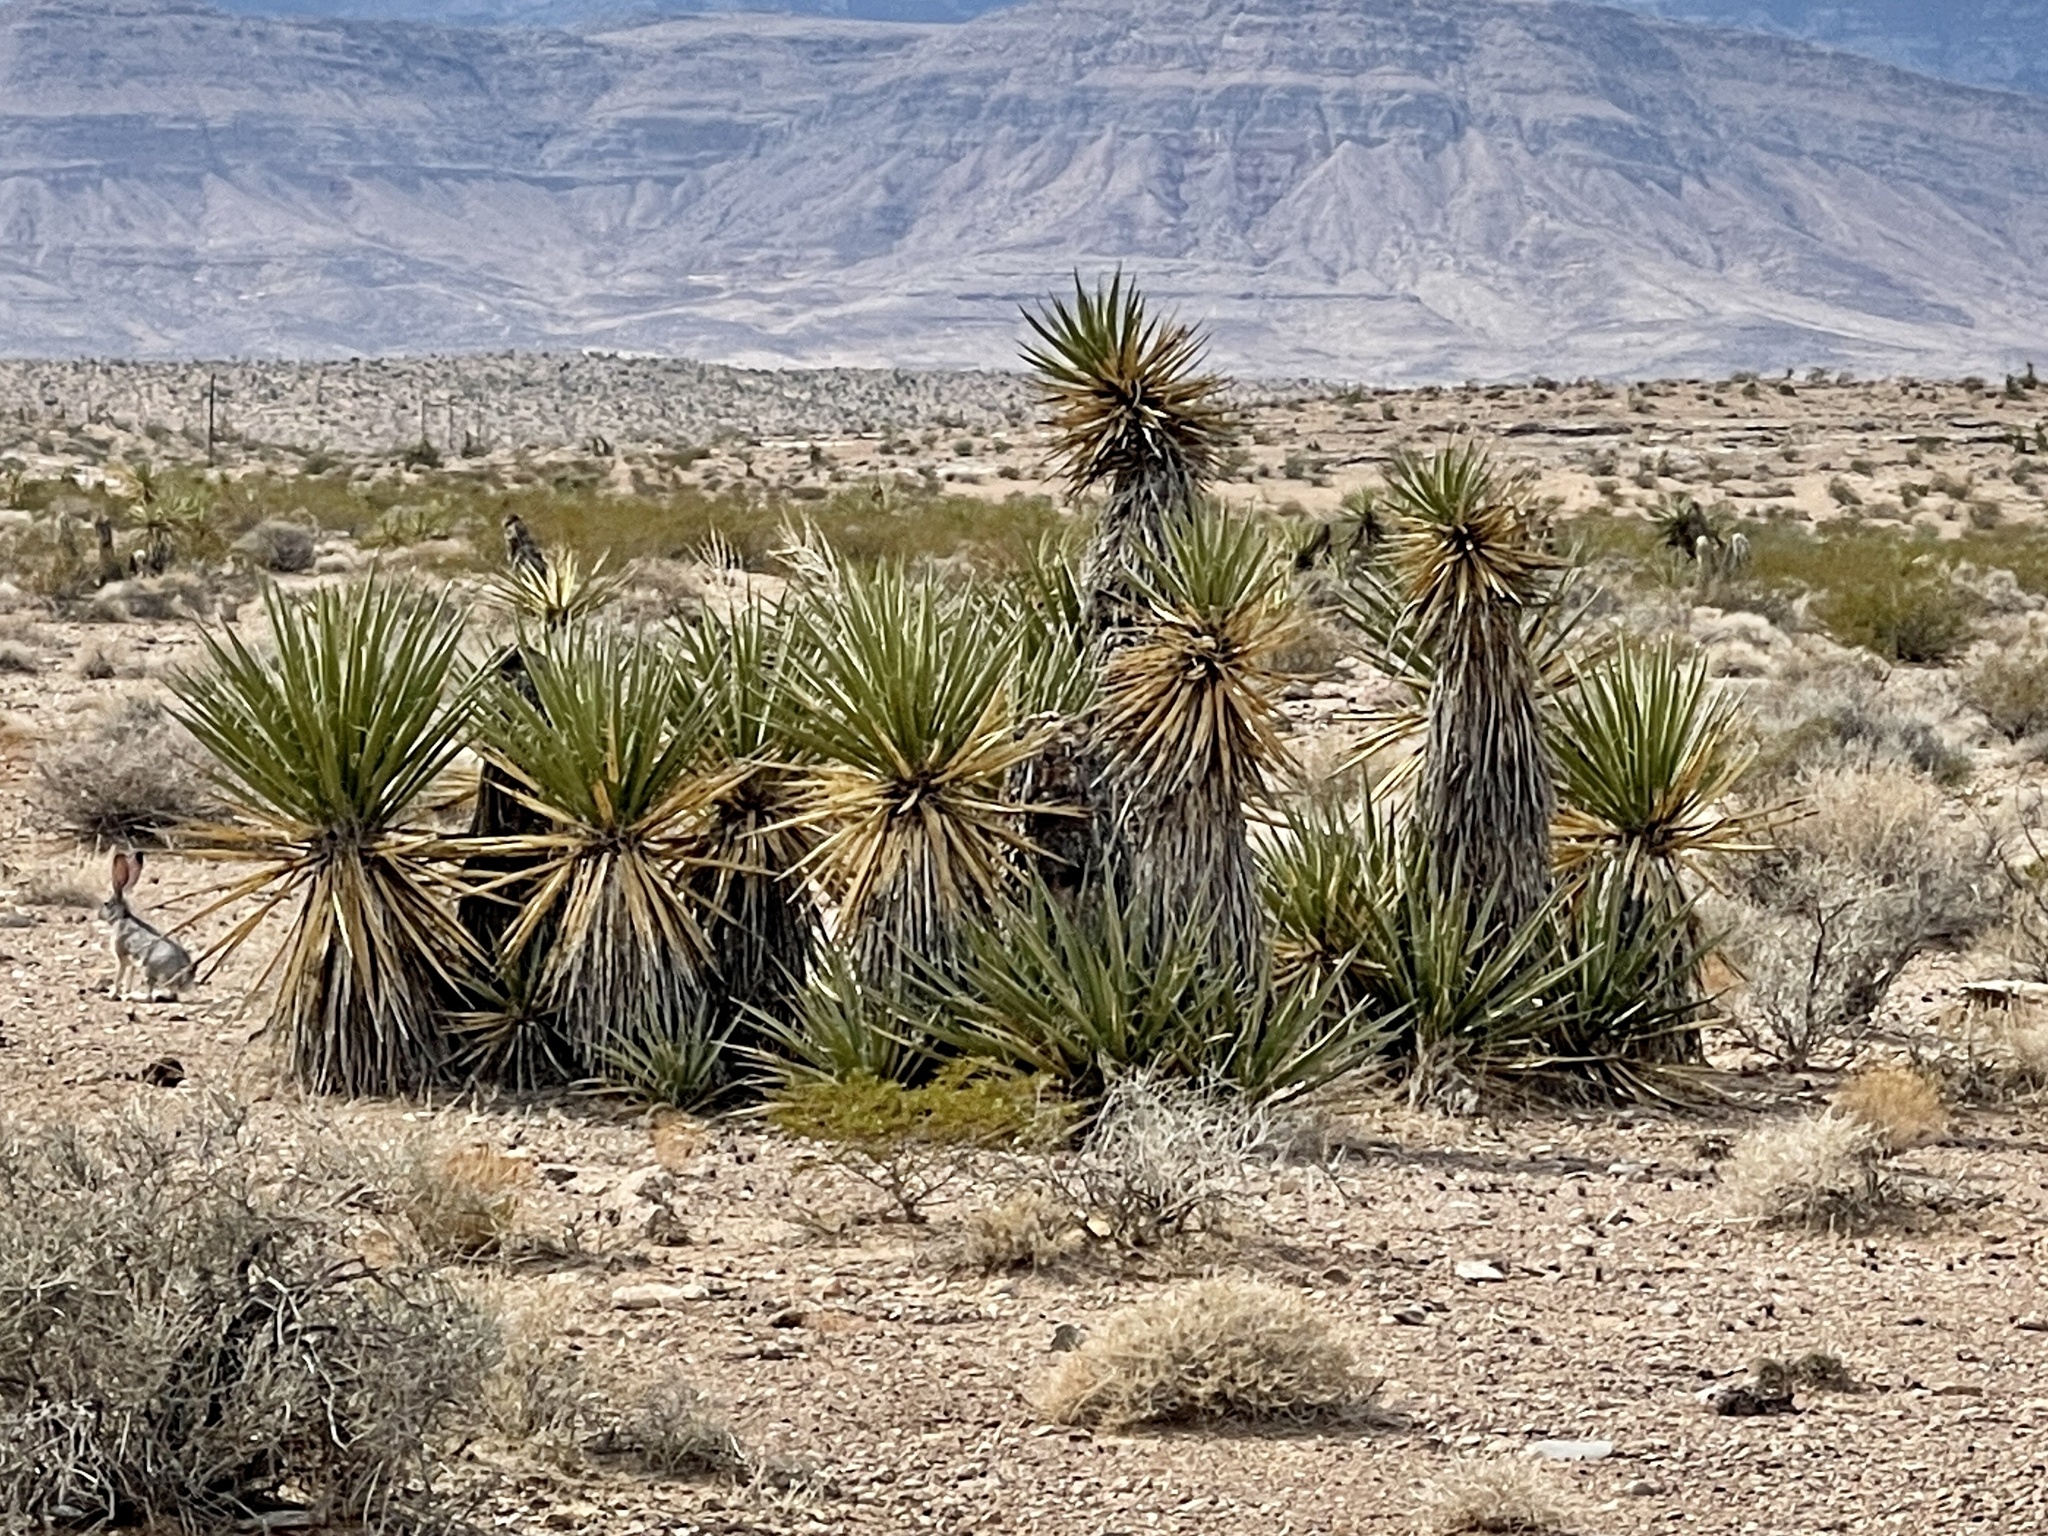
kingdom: Plantae
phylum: Tracheophyta
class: Liliopsida
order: Asparagales
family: Asparagaceae
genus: Yucca
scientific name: Yucca schidigera
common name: Mojave yucca
